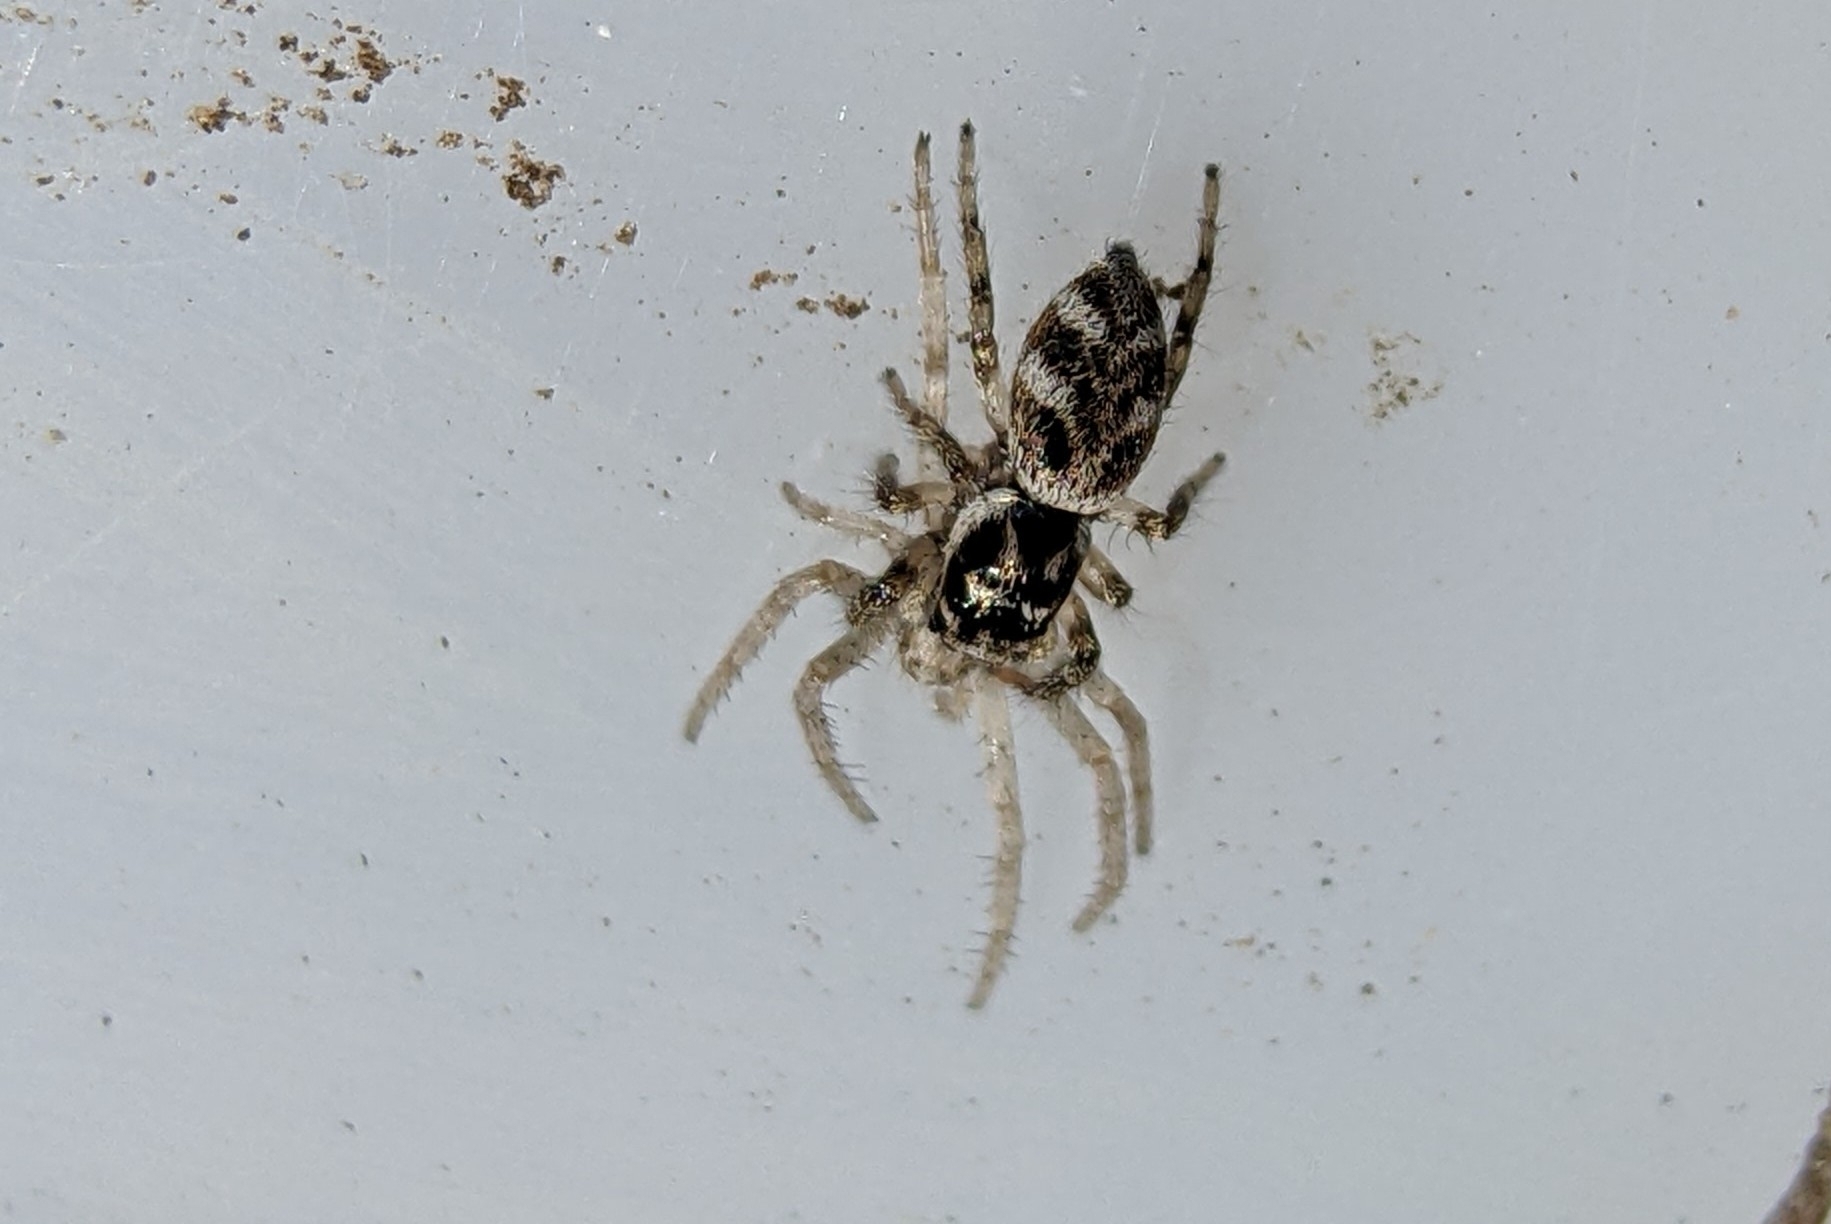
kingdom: Animalia
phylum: Arthropoda
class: Arachnida
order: Araneae
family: Salticidae
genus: Salticus
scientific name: Salticus scenicus
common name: Zebra jumper
